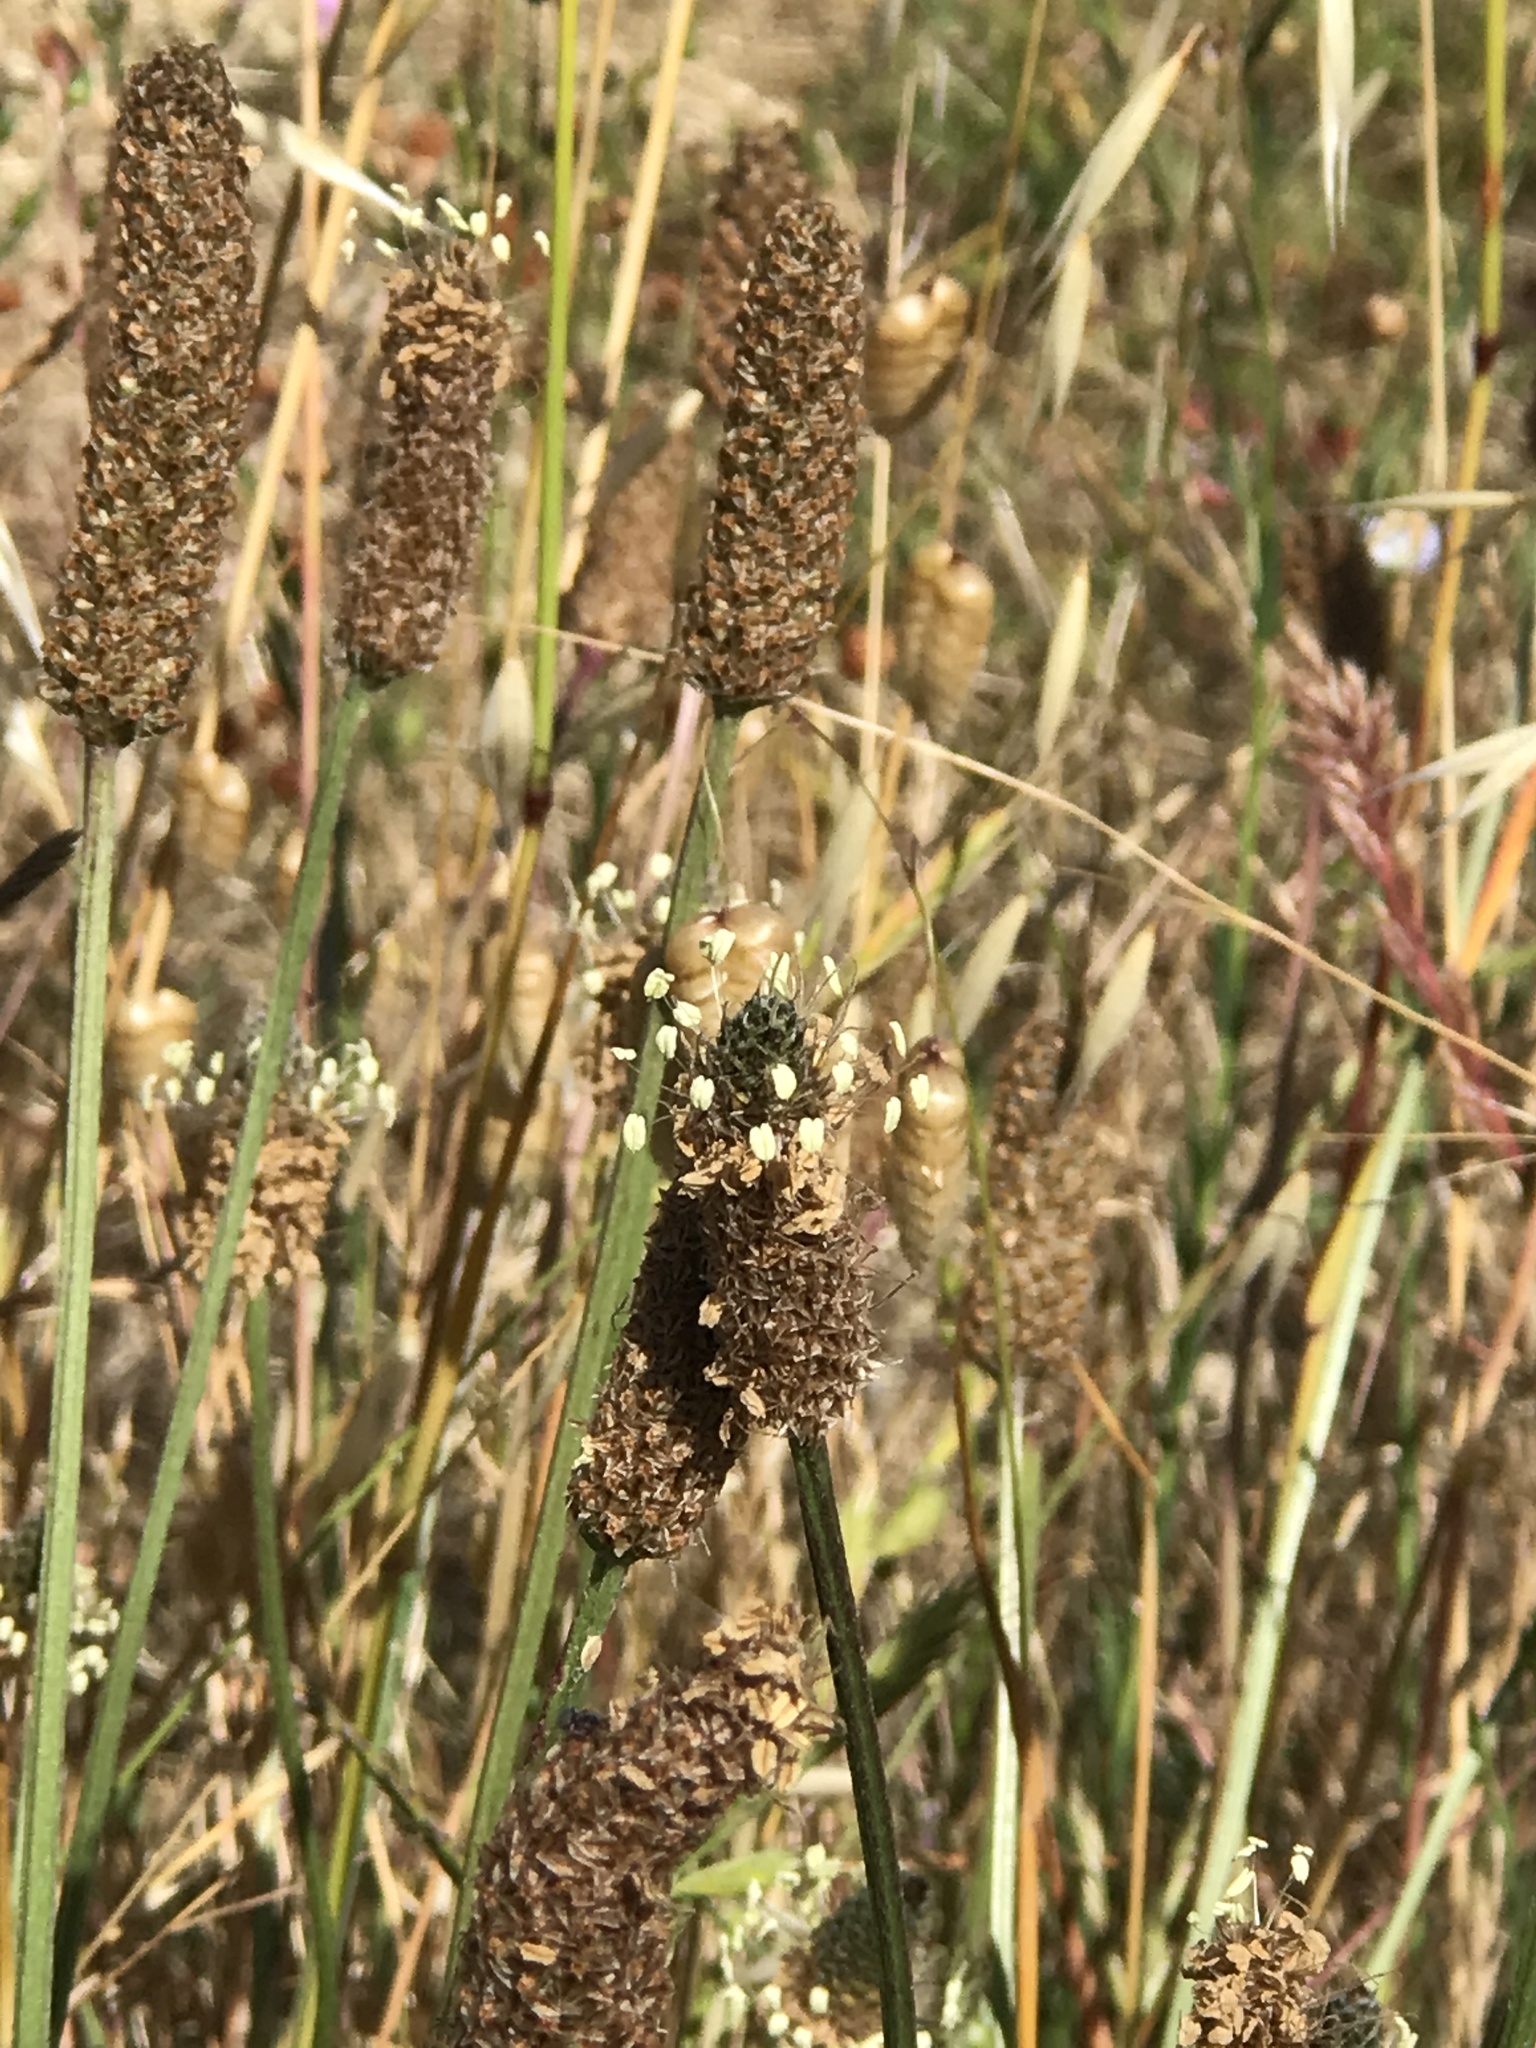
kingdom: Plantae
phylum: Tracheophyta
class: Magnoliopsida
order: Lamiales
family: Plantaginaceae
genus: Plantago
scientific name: Plantago lanceolata
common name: Ribwort plantain
